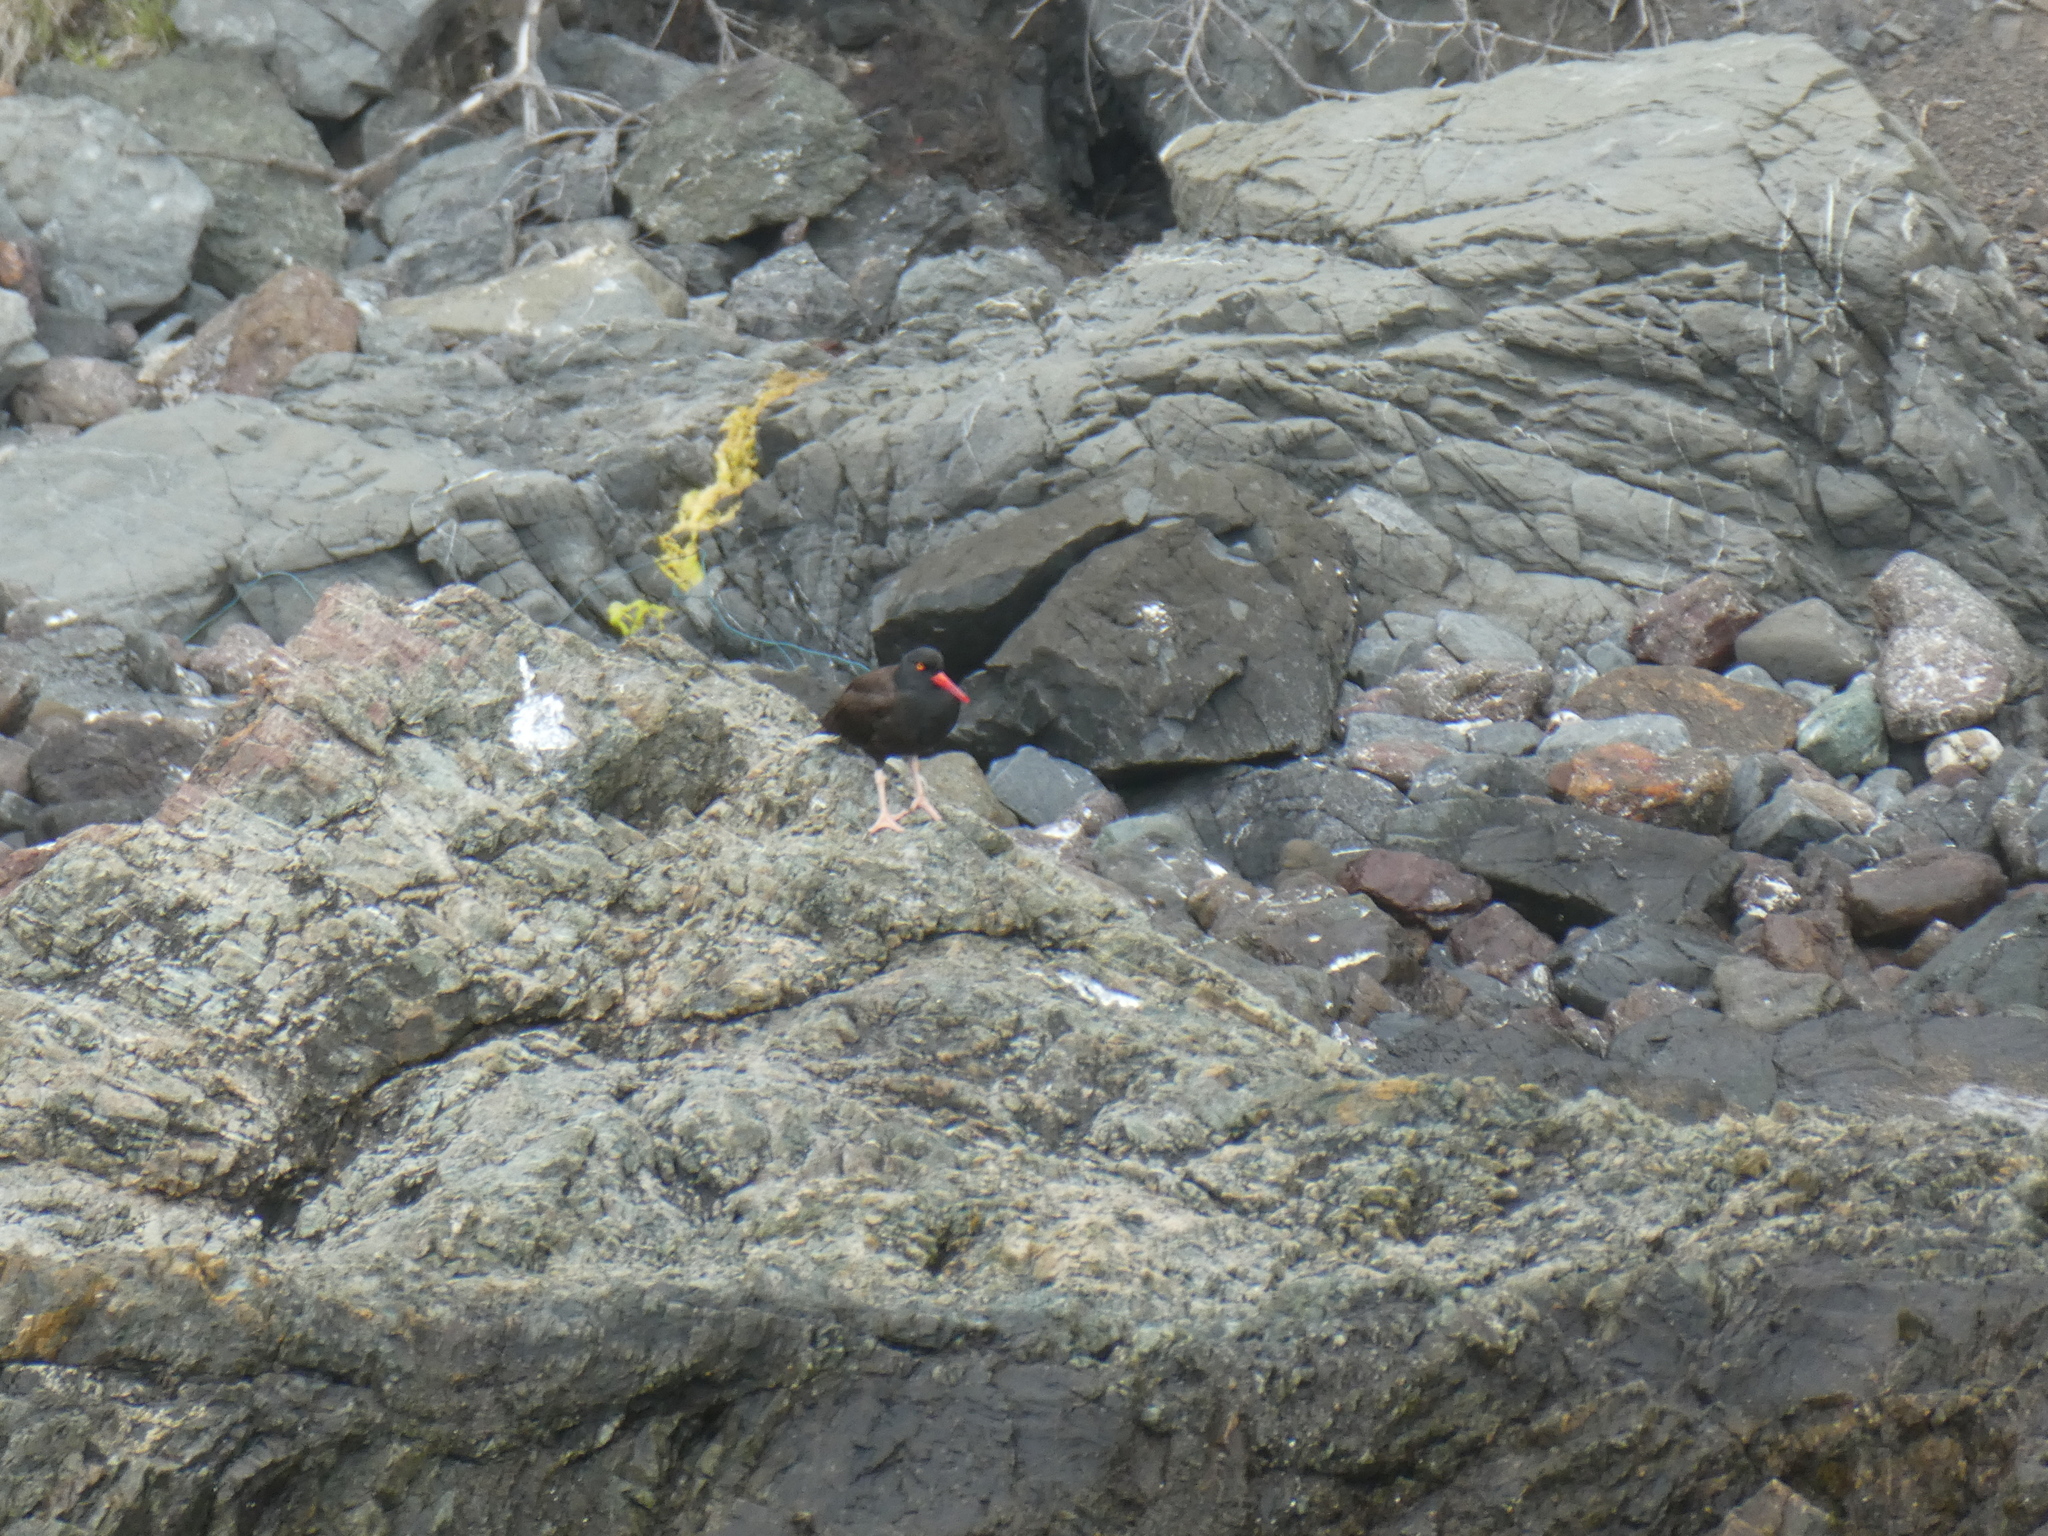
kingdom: Animalia
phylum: Chordata
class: Aves
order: Charadriiformes
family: Haematopodidae
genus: Haematopus
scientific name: Haematopus bachmani
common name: Black oystercatcher
